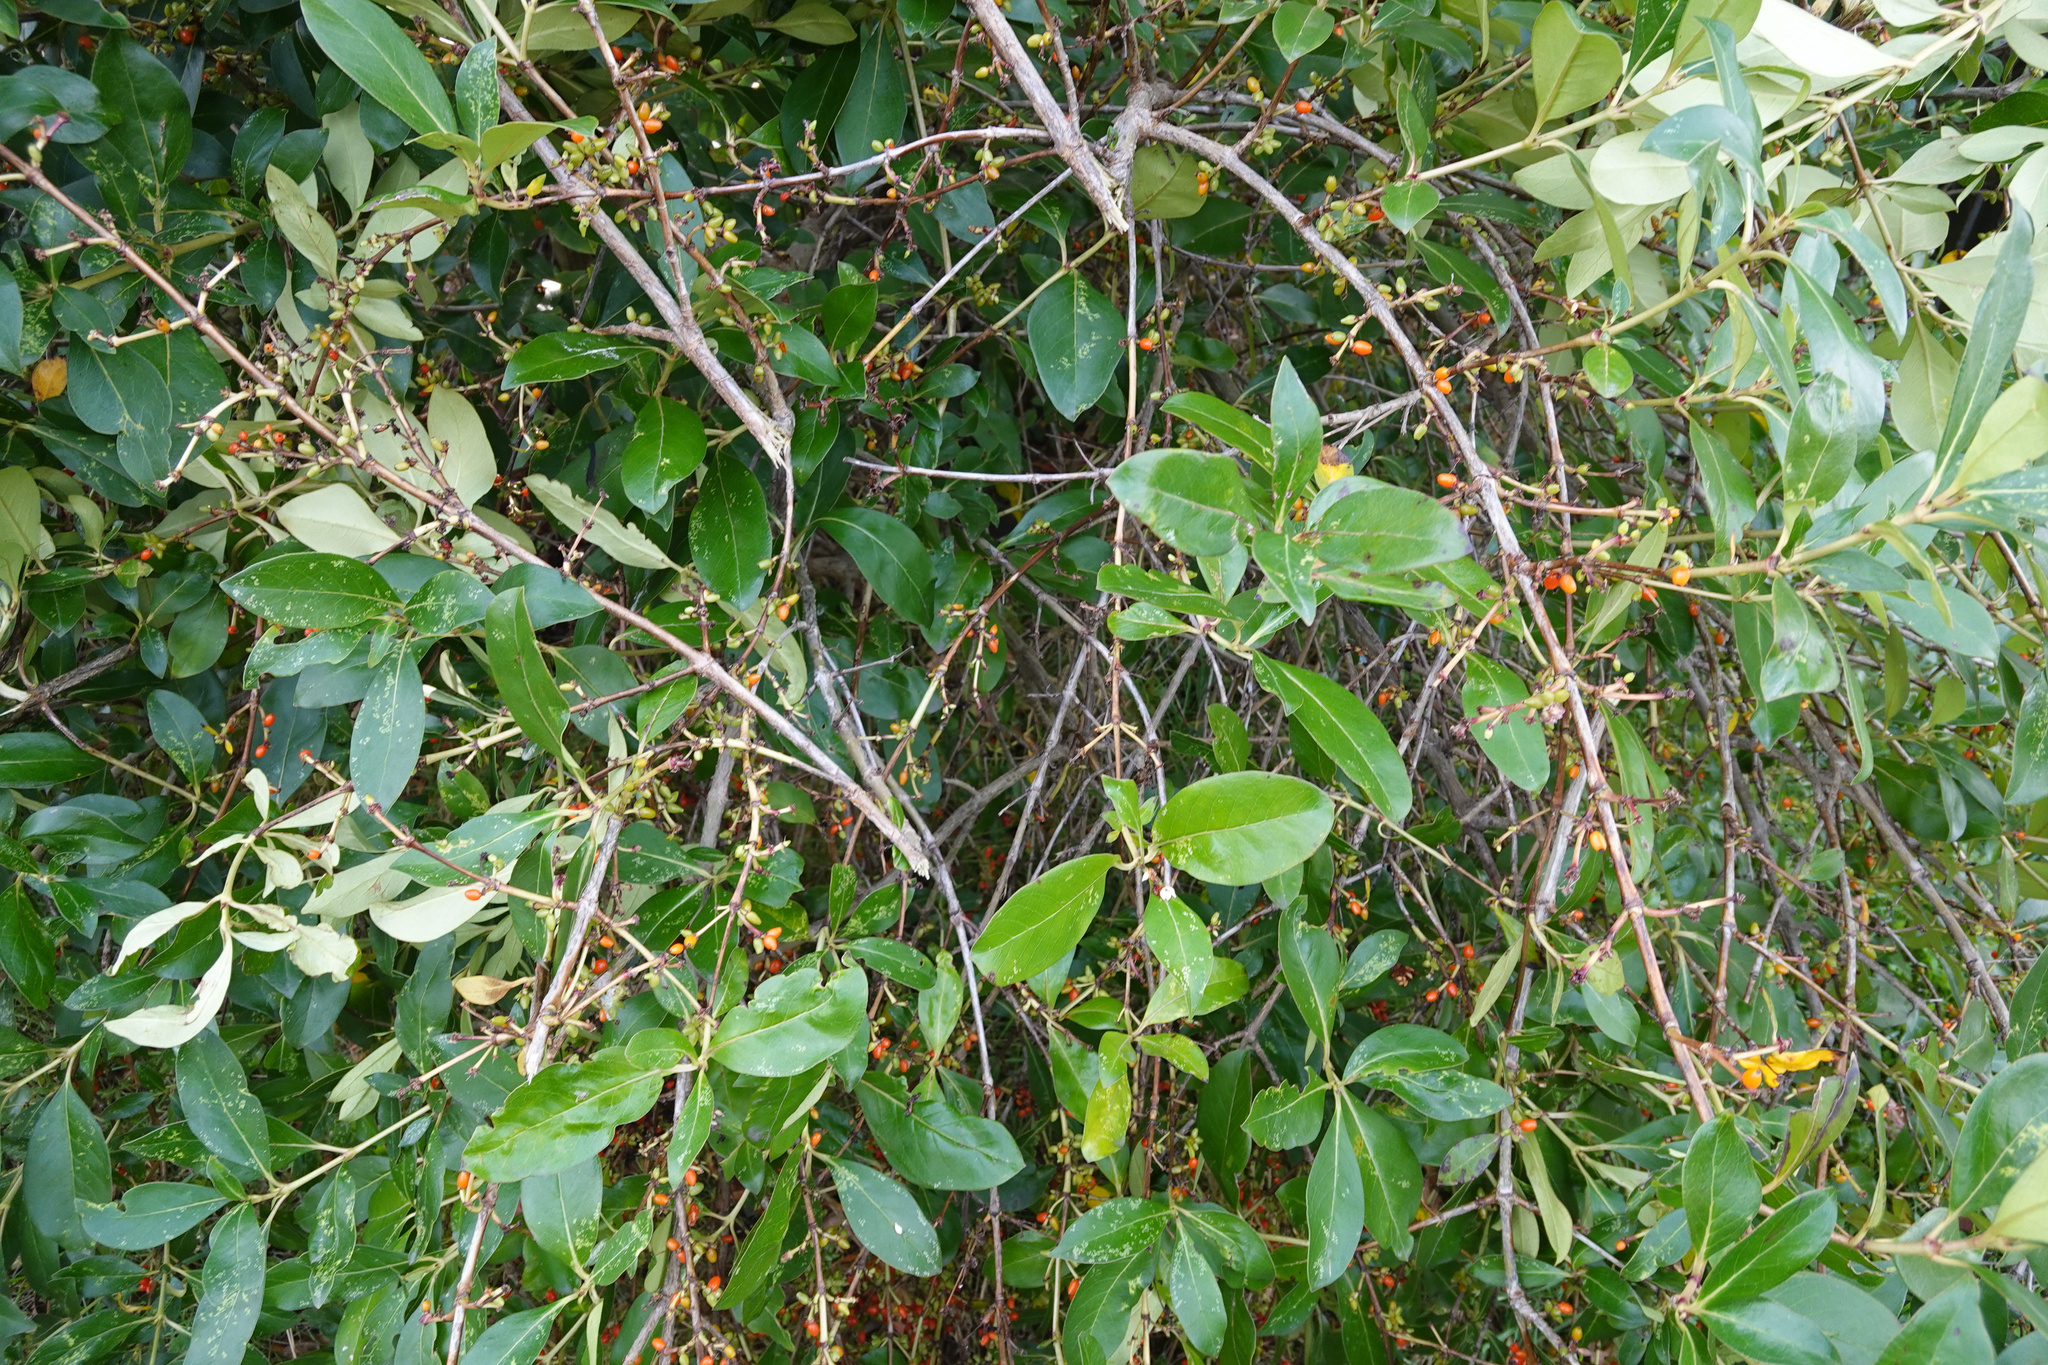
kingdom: Plantae
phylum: Tracheophyta
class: Magnoliopsida
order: Gentianales
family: Rubiaceae
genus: Coprosma
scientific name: Coprosma robusta
